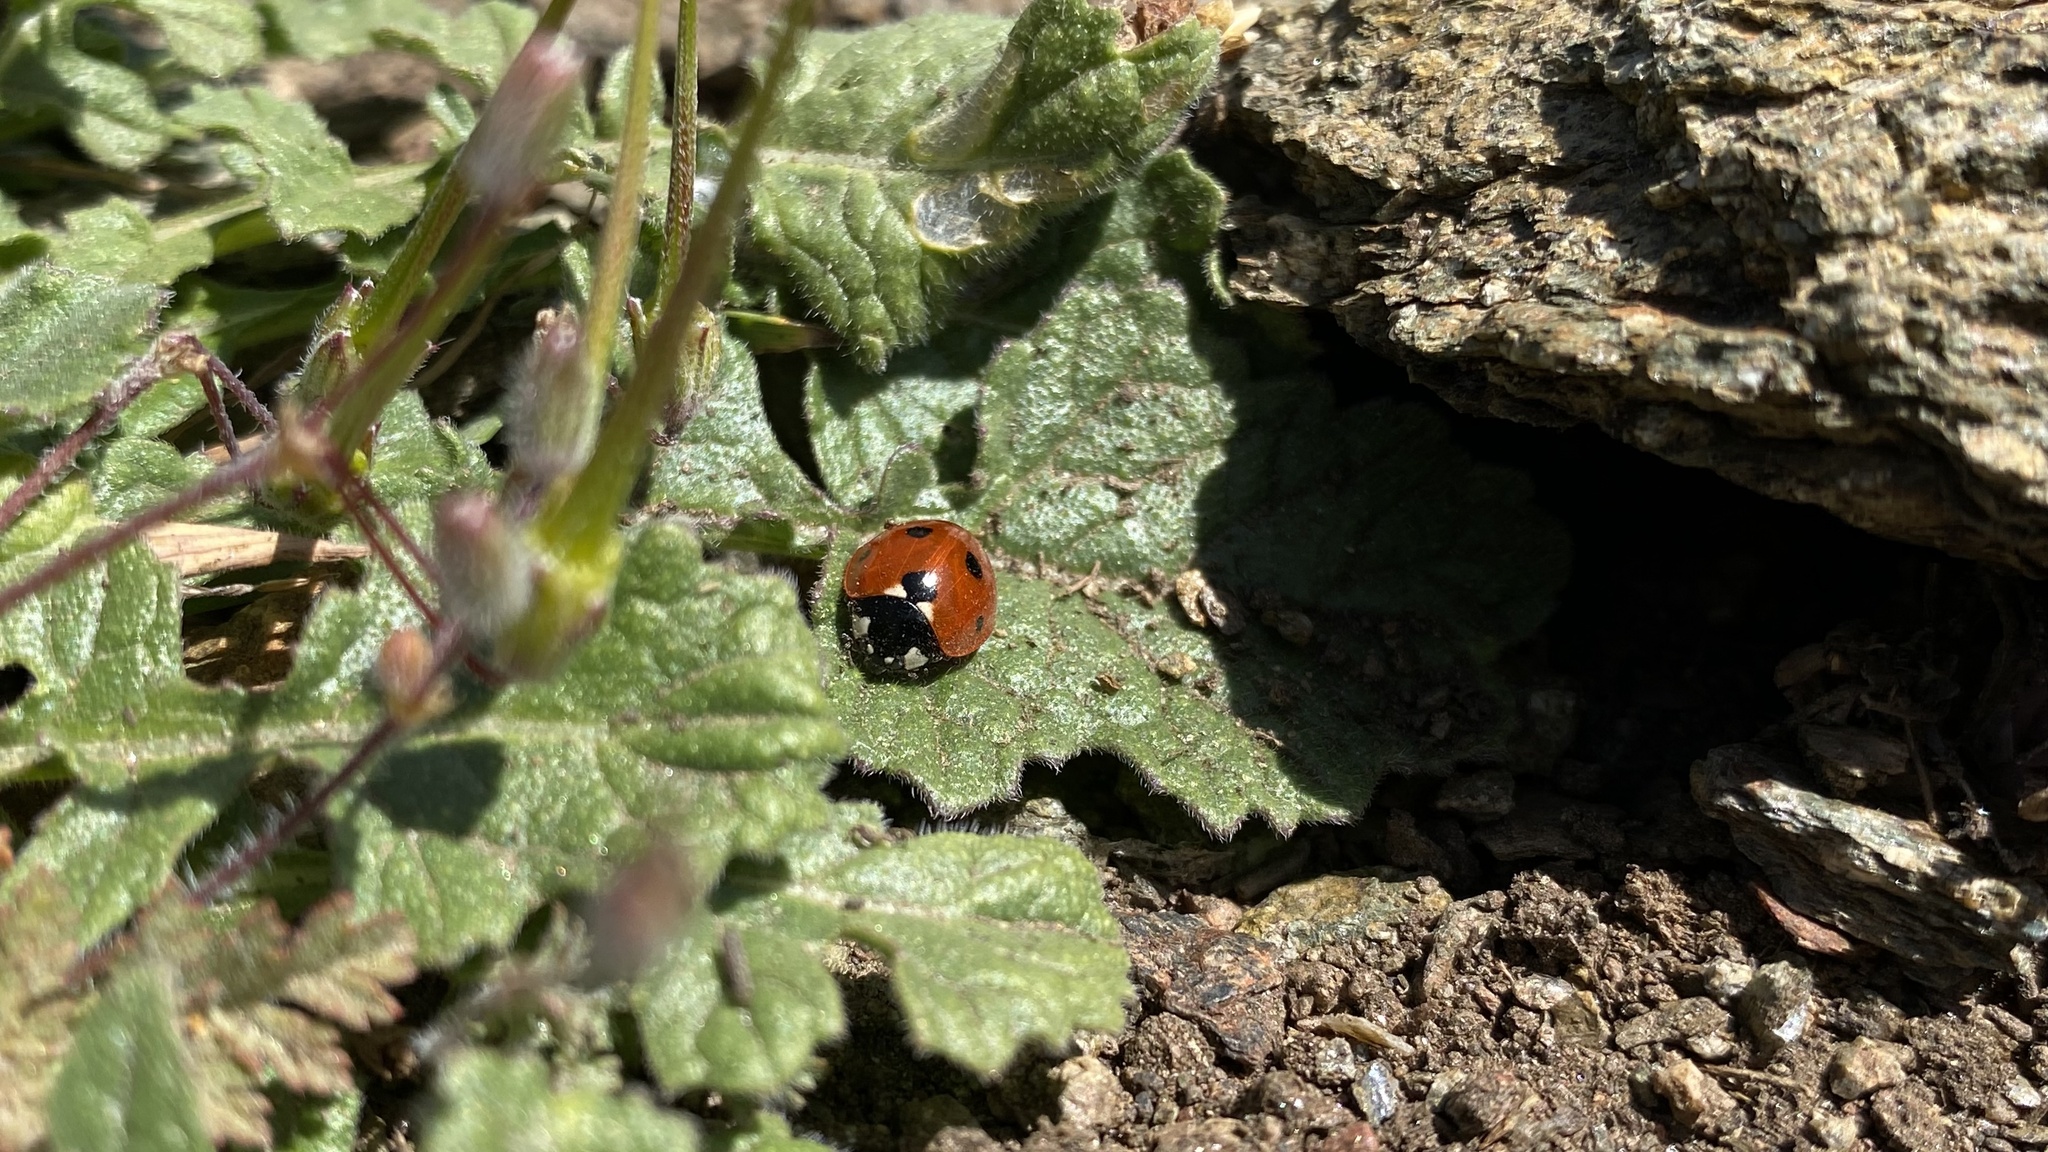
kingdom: Animalia
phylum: Arthropoda
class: Insecta
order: Coleoptera
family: Coccinellidae
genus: Coccinella
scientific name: Coccinella septempunctata
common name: Sevenspotted lady beetle
